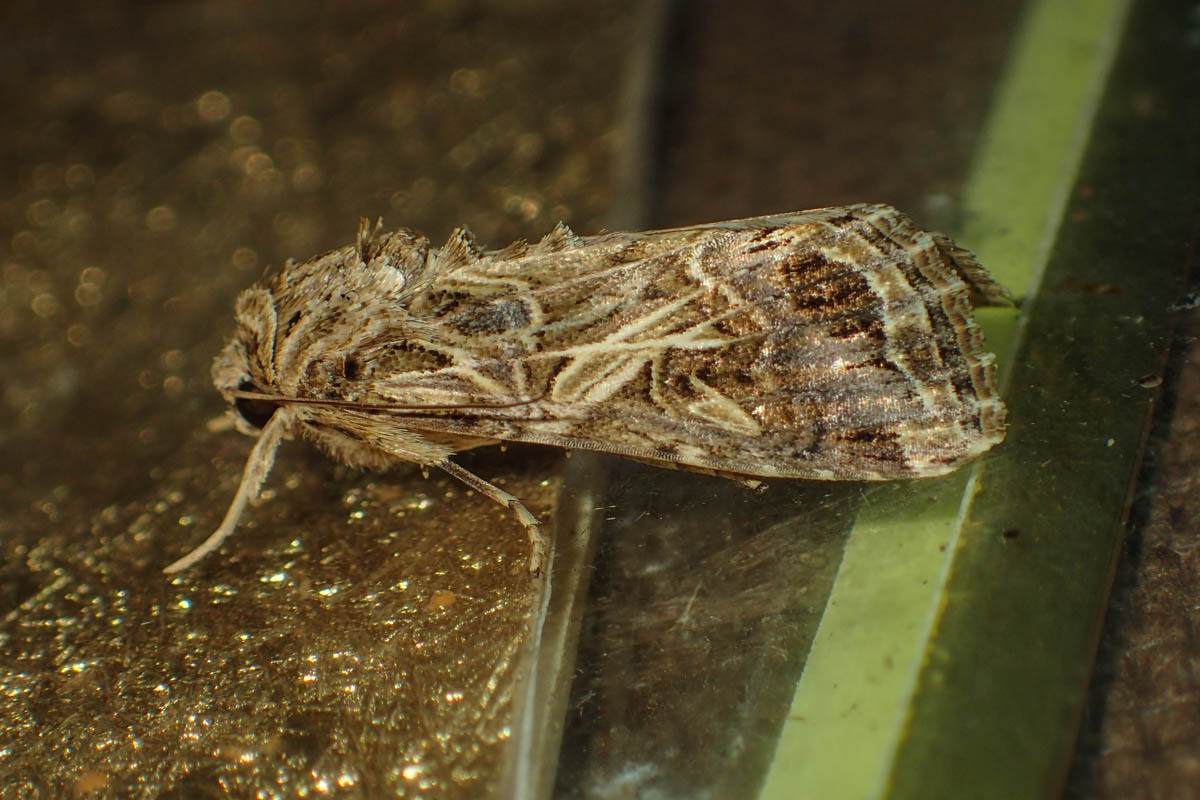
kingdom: Animalia
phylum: Arthropoda
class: Insecta
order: Lepidoptera
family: Noctuidae
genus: Spodoptera
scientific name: Spodoptera litura
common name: Asian cotton leafworm
